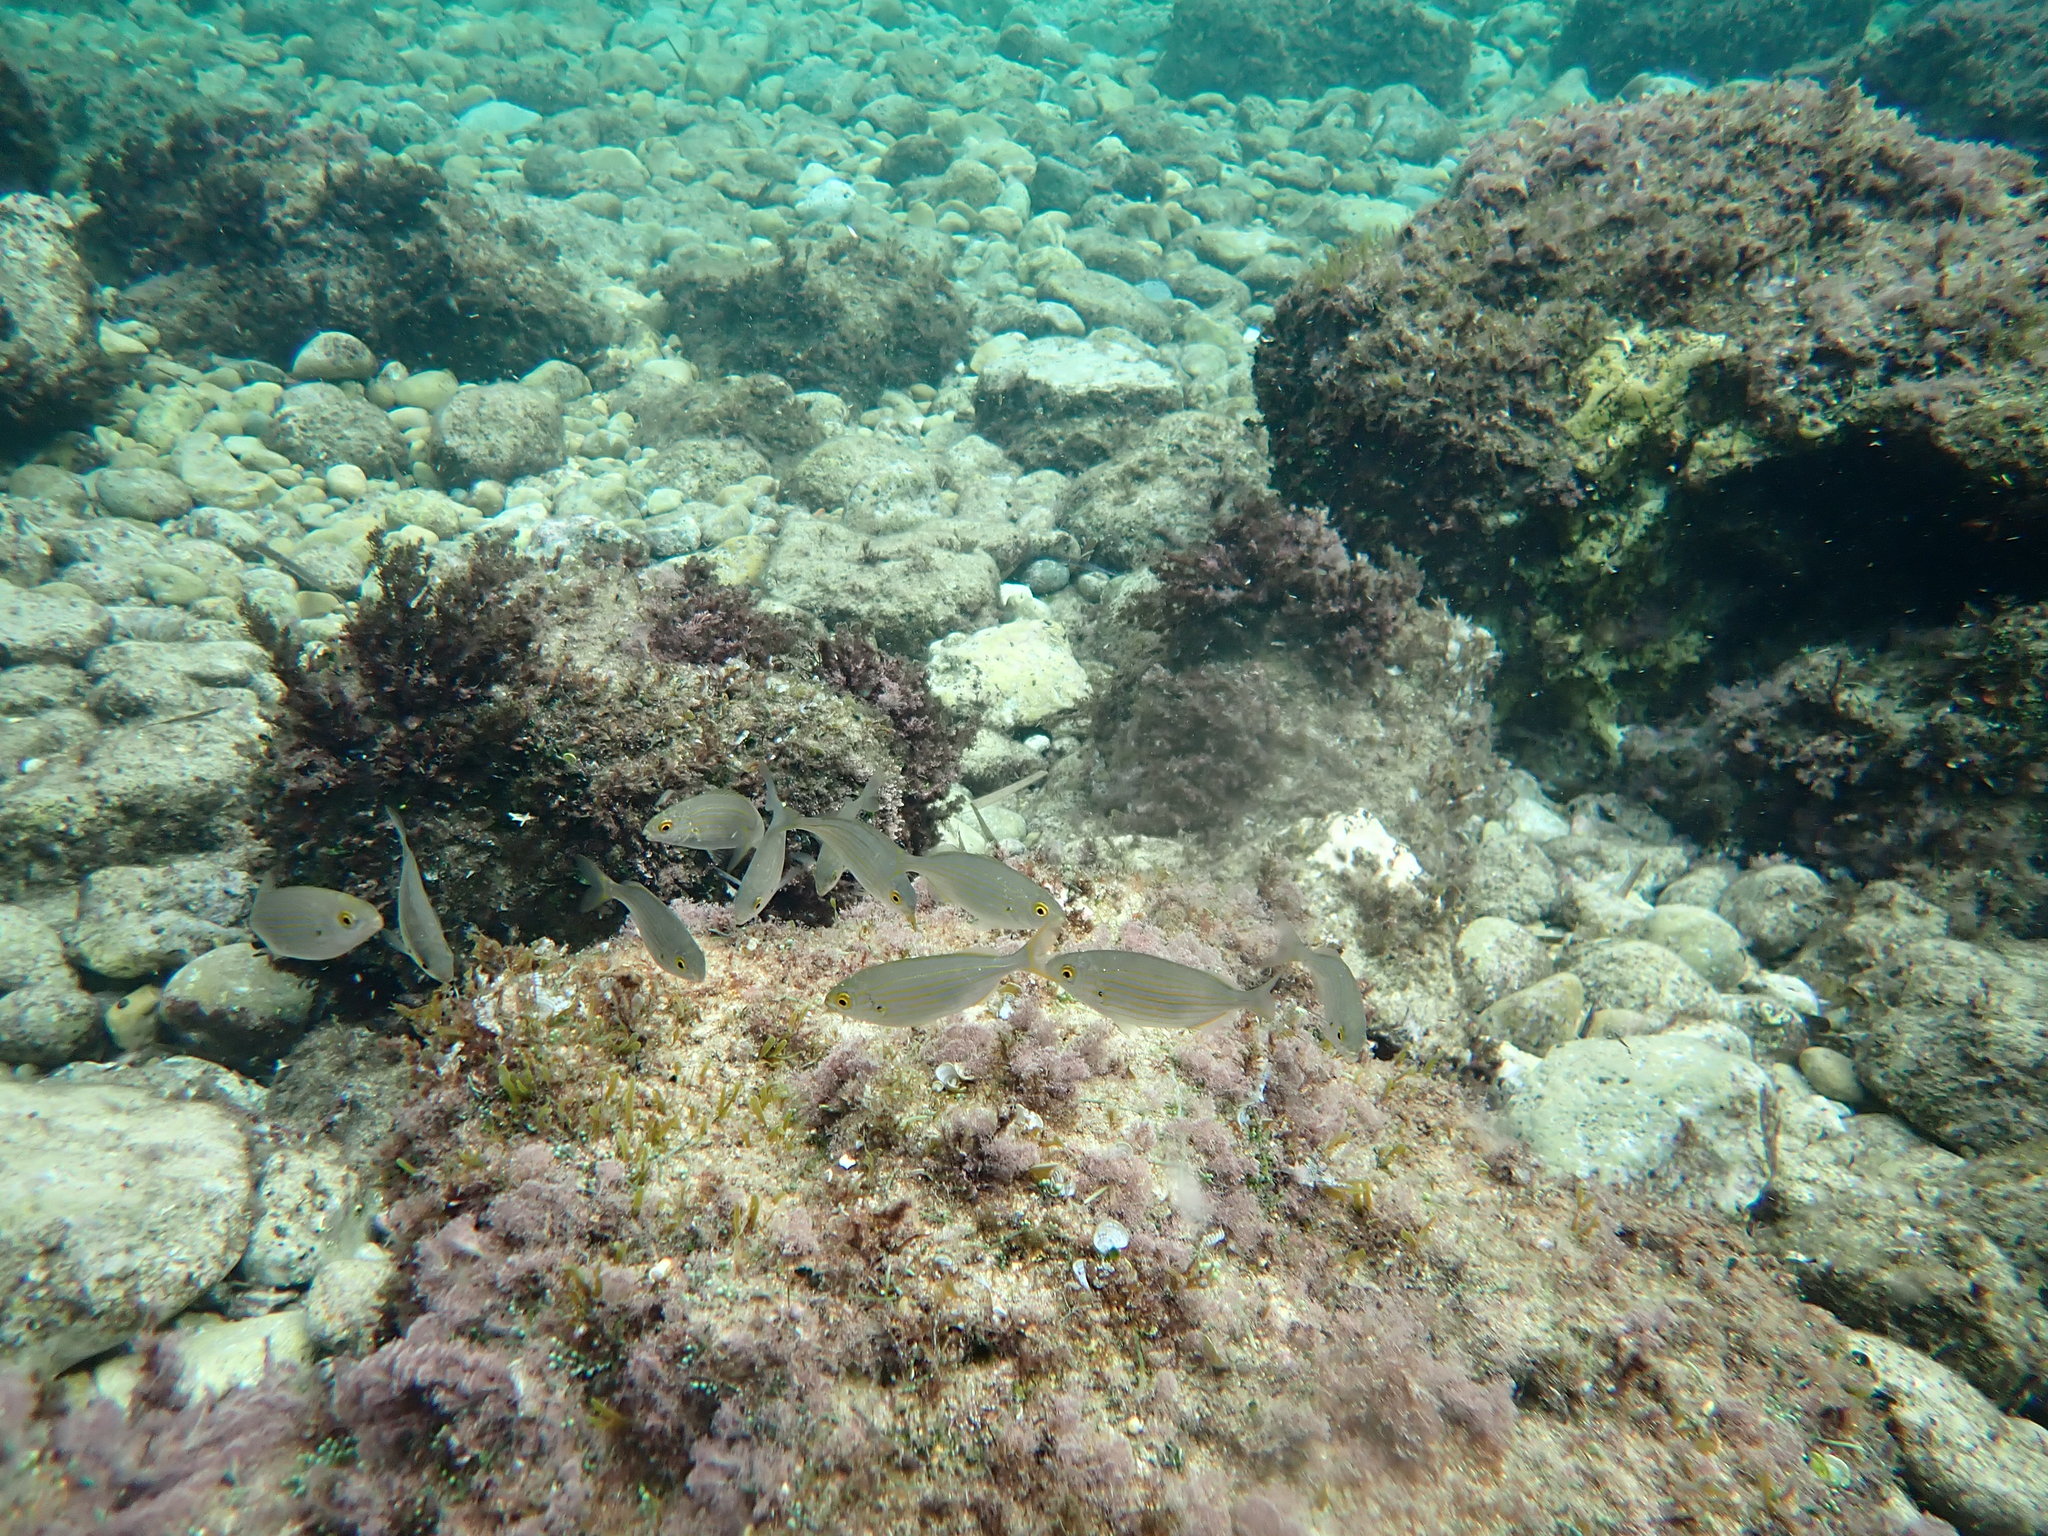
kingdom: Animalia
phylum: Chordata
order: Perciformes
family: Sparidae
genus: Sarpa
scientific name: Sarpa salpa
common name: Salema
